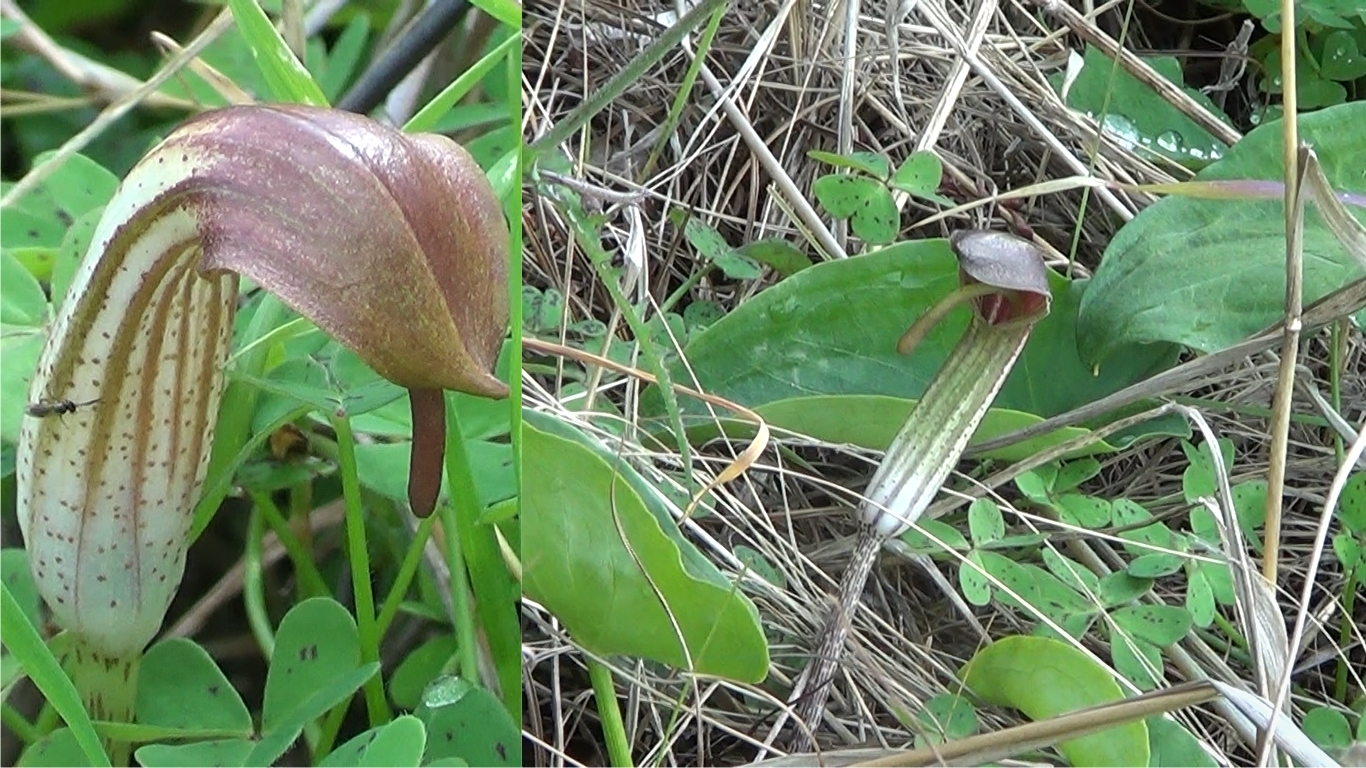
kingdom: Plantae
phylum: Tracheophyta
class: Liliopsida
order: Alismatales
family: Araceae
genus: Arisarum
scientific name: Arisarum vulgare
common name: Common arisarum
